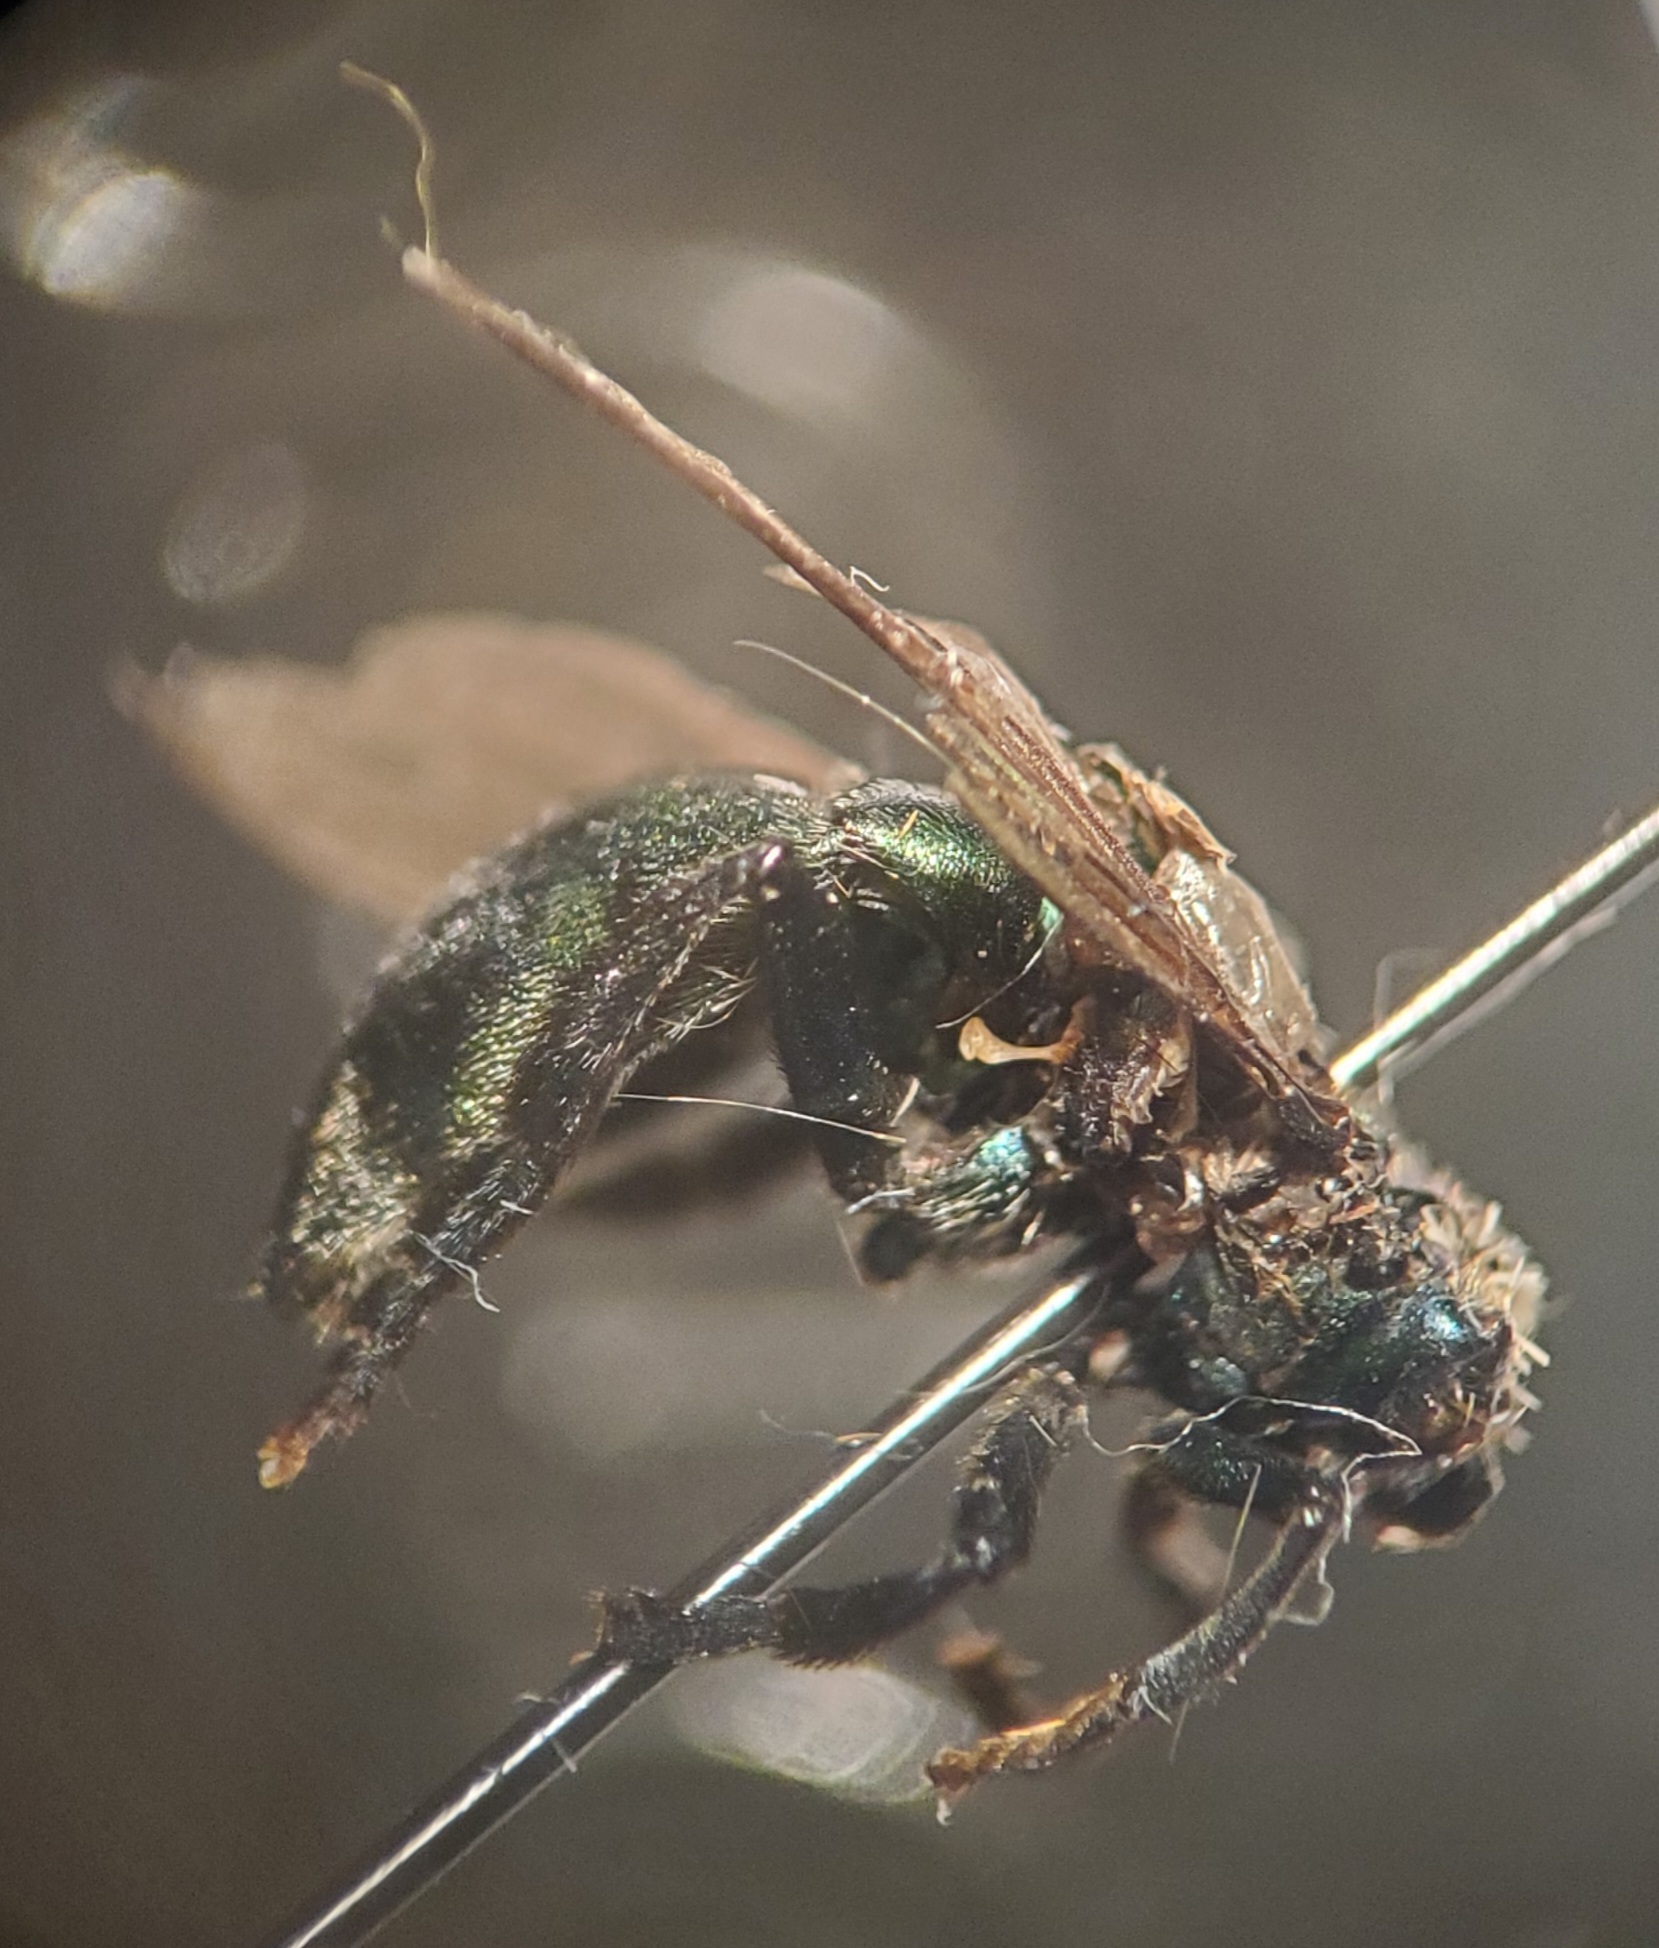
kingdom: Animalia
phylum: Arthropoda
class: Insecta
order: Diptera
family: Syrphidae
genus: Microdon
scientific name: Microdon fulgens
